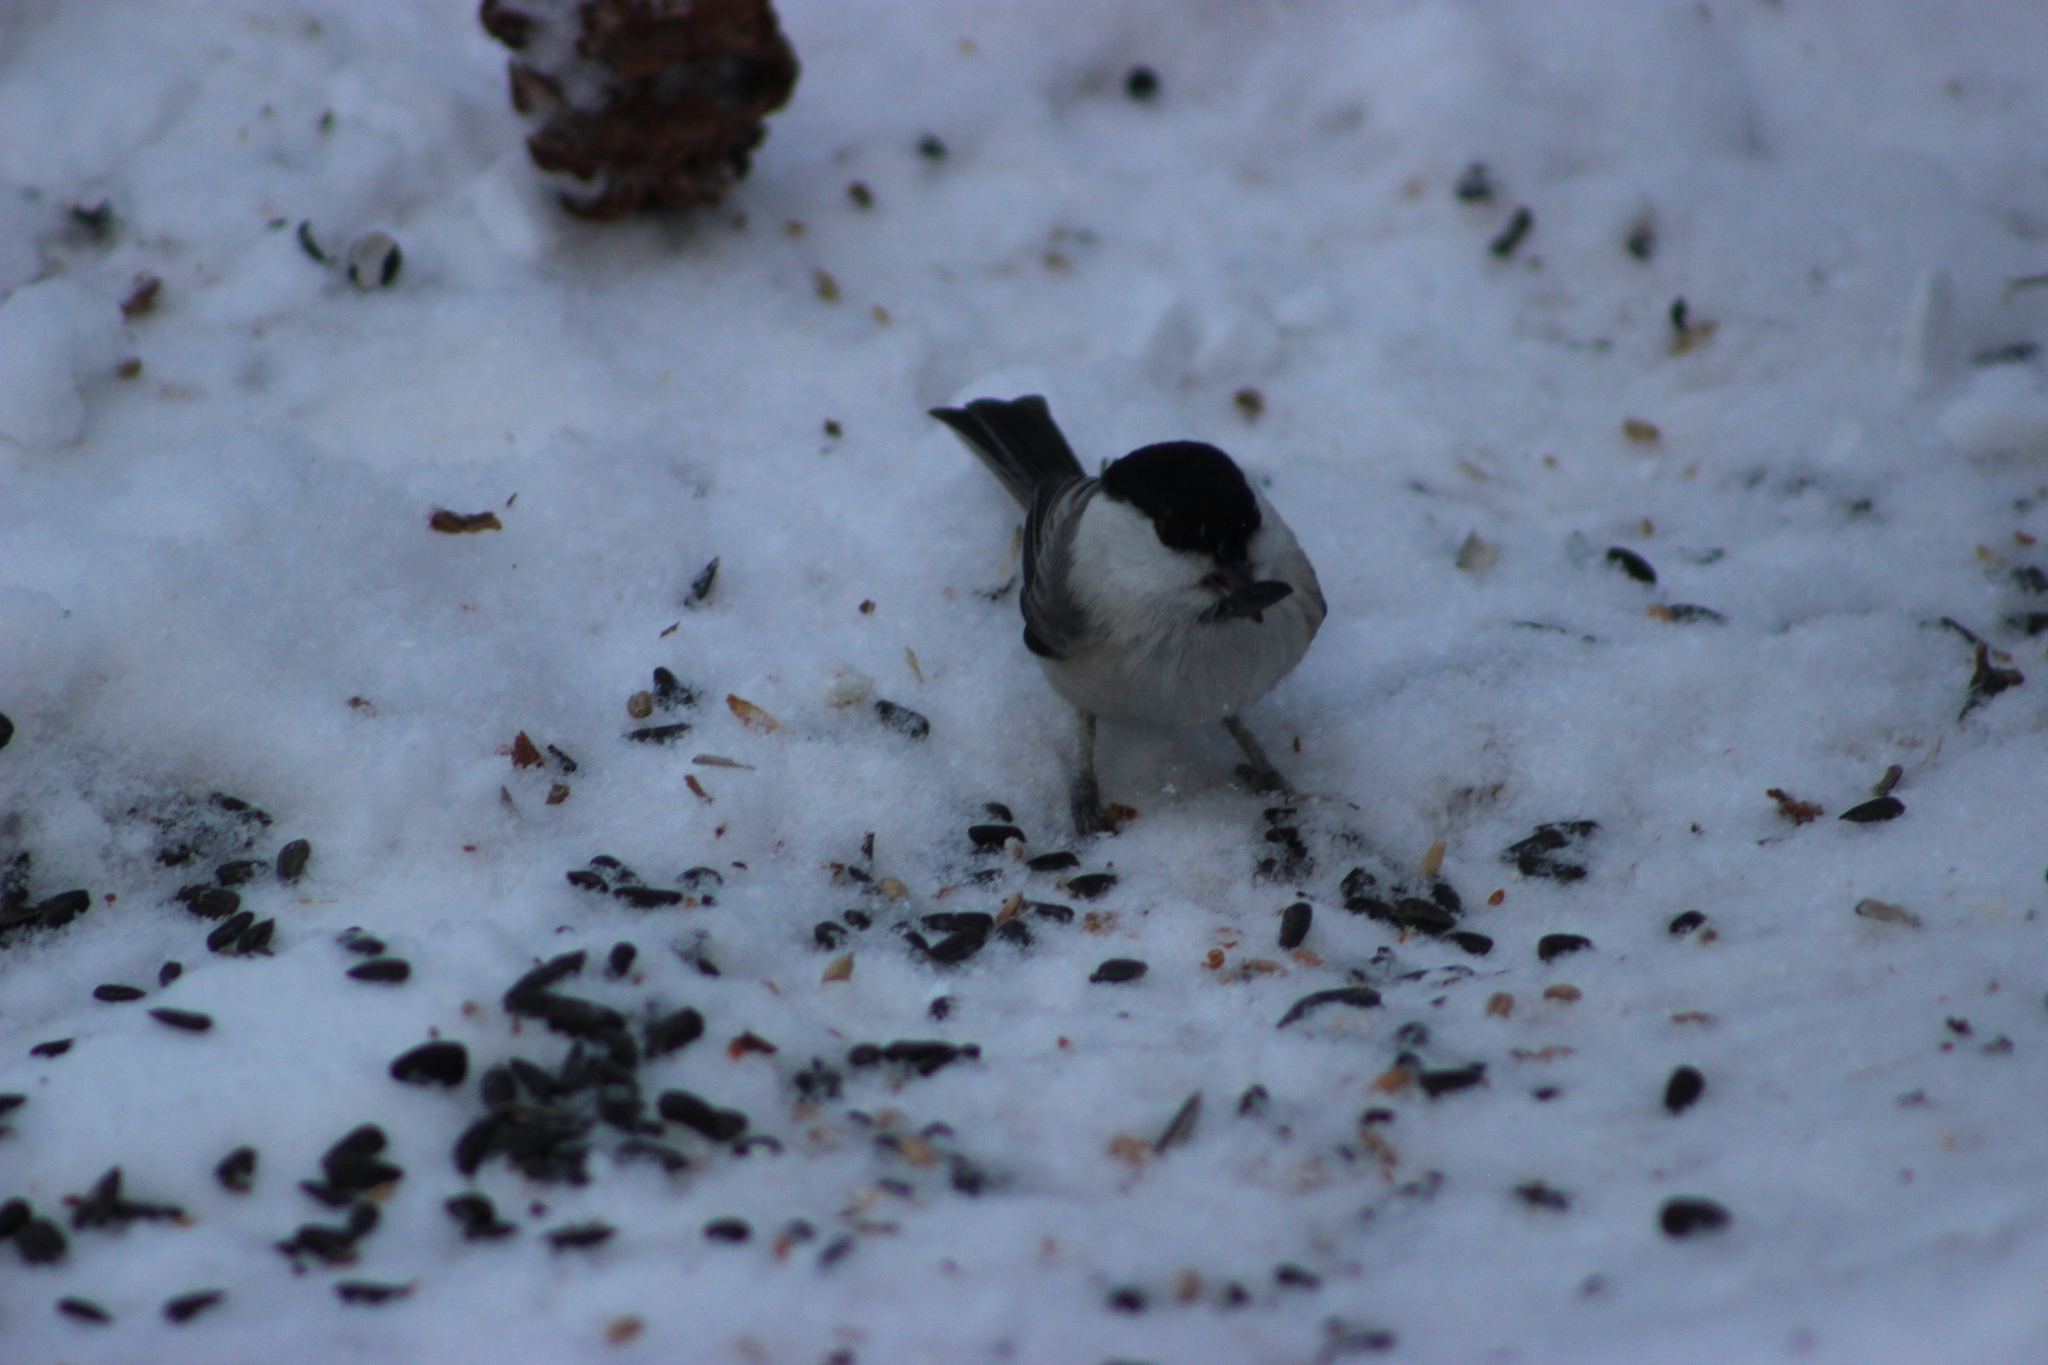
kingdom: Animalia
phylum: Chordata
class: Aves
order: Passeriformes
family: Paridae
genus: Poecile
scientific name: Poecile montanus
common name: Willow tit
